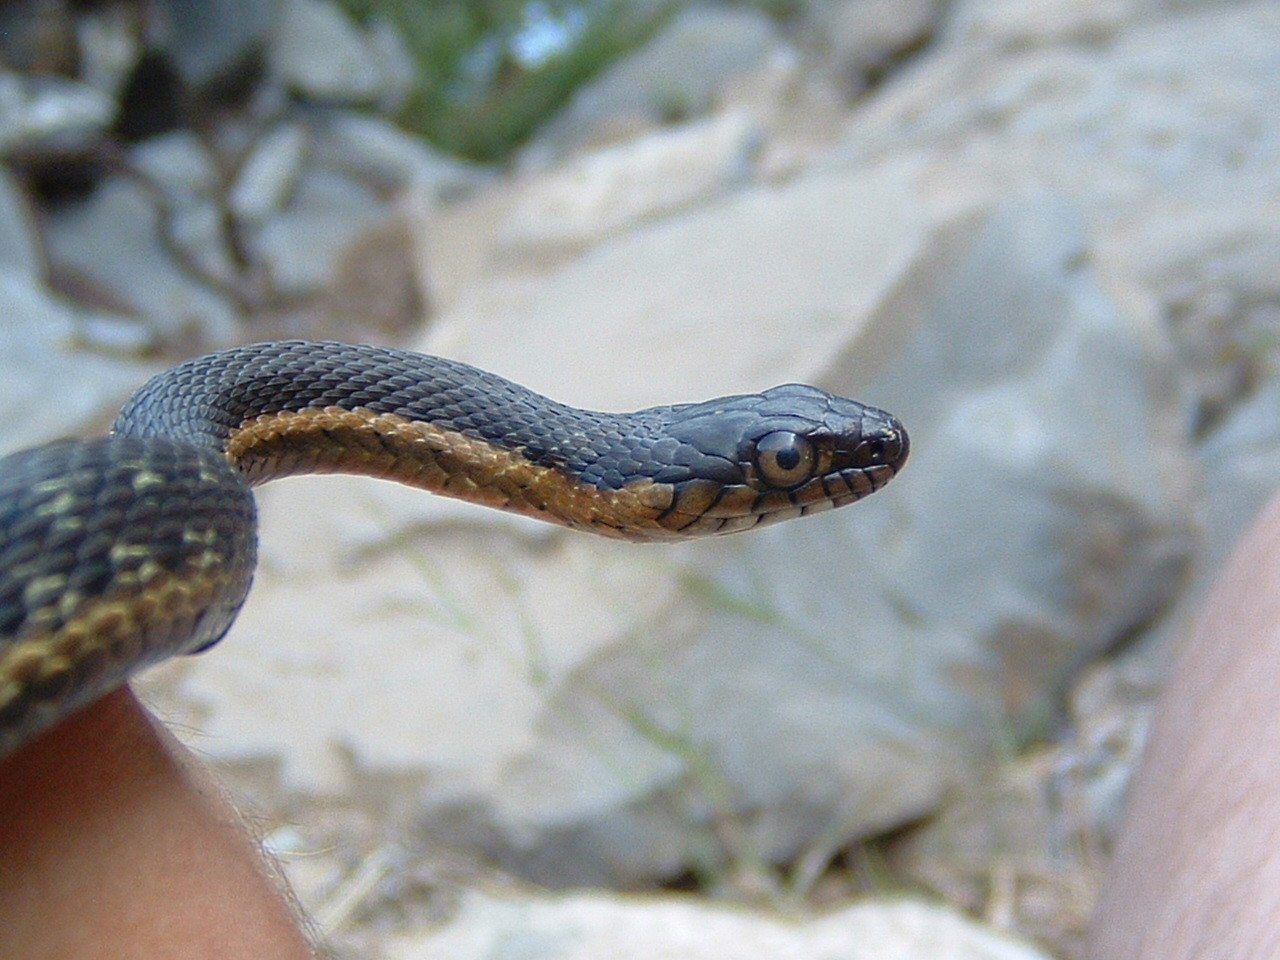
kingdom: Animalia
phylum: Chordata
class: Squamata
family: Colubridae
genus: Thamnophis
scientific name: Thamnophis hammondii
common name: Two-striped garter snake
